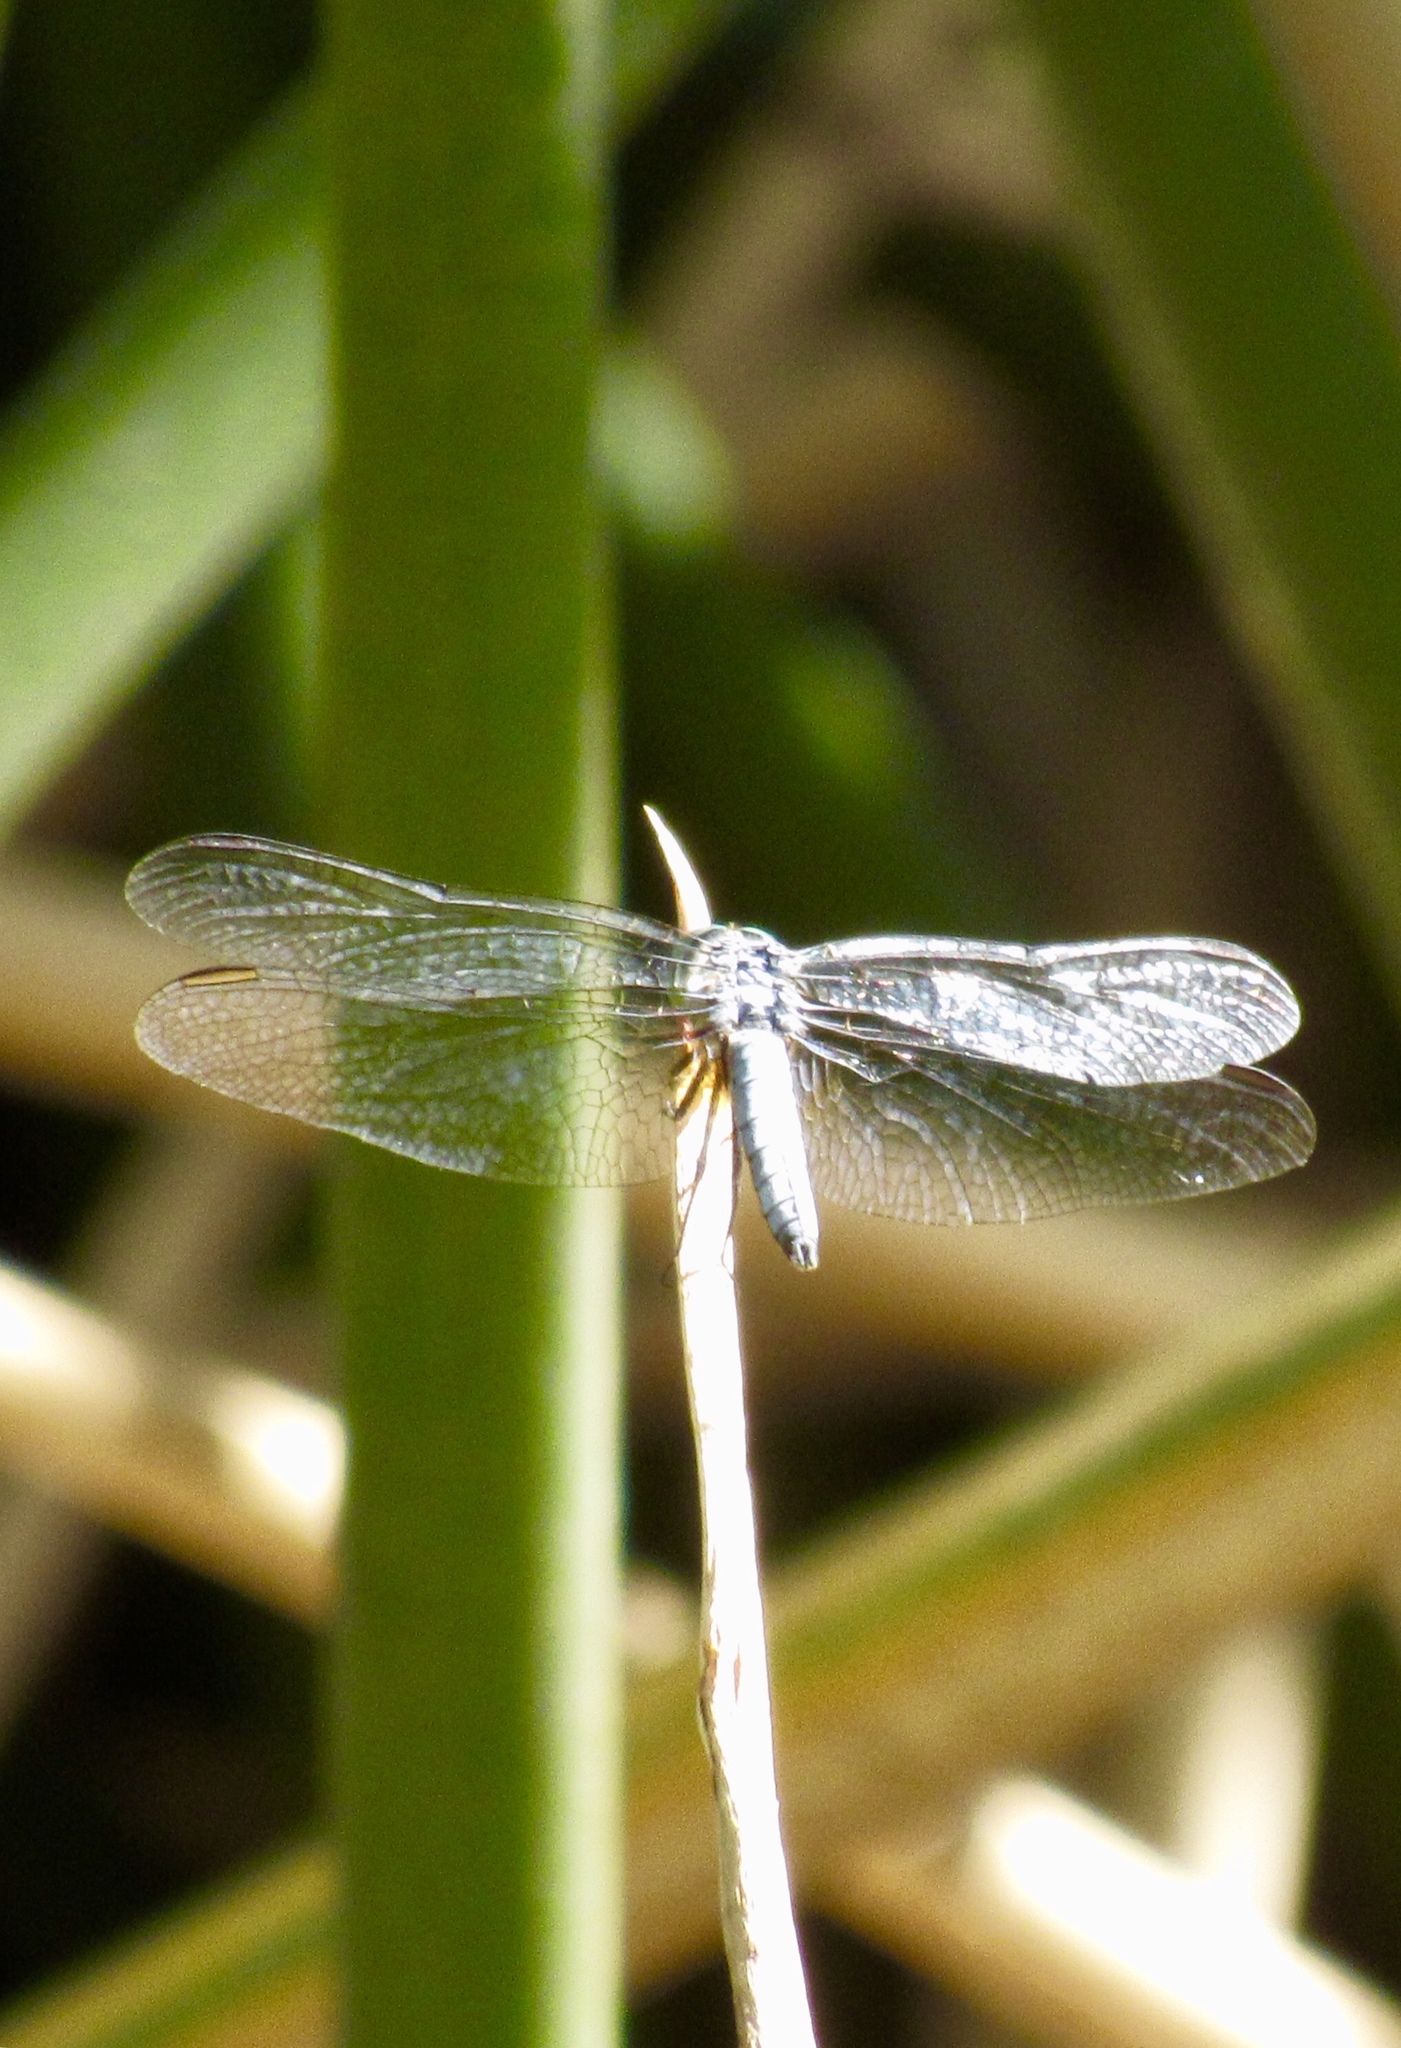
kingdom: Animalia
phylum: Arthropoda
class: Insecta
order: Odonata
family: Libellulidae
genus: Pachydiplax
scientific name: Pachydiplax longipennis
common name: Blue dasher
